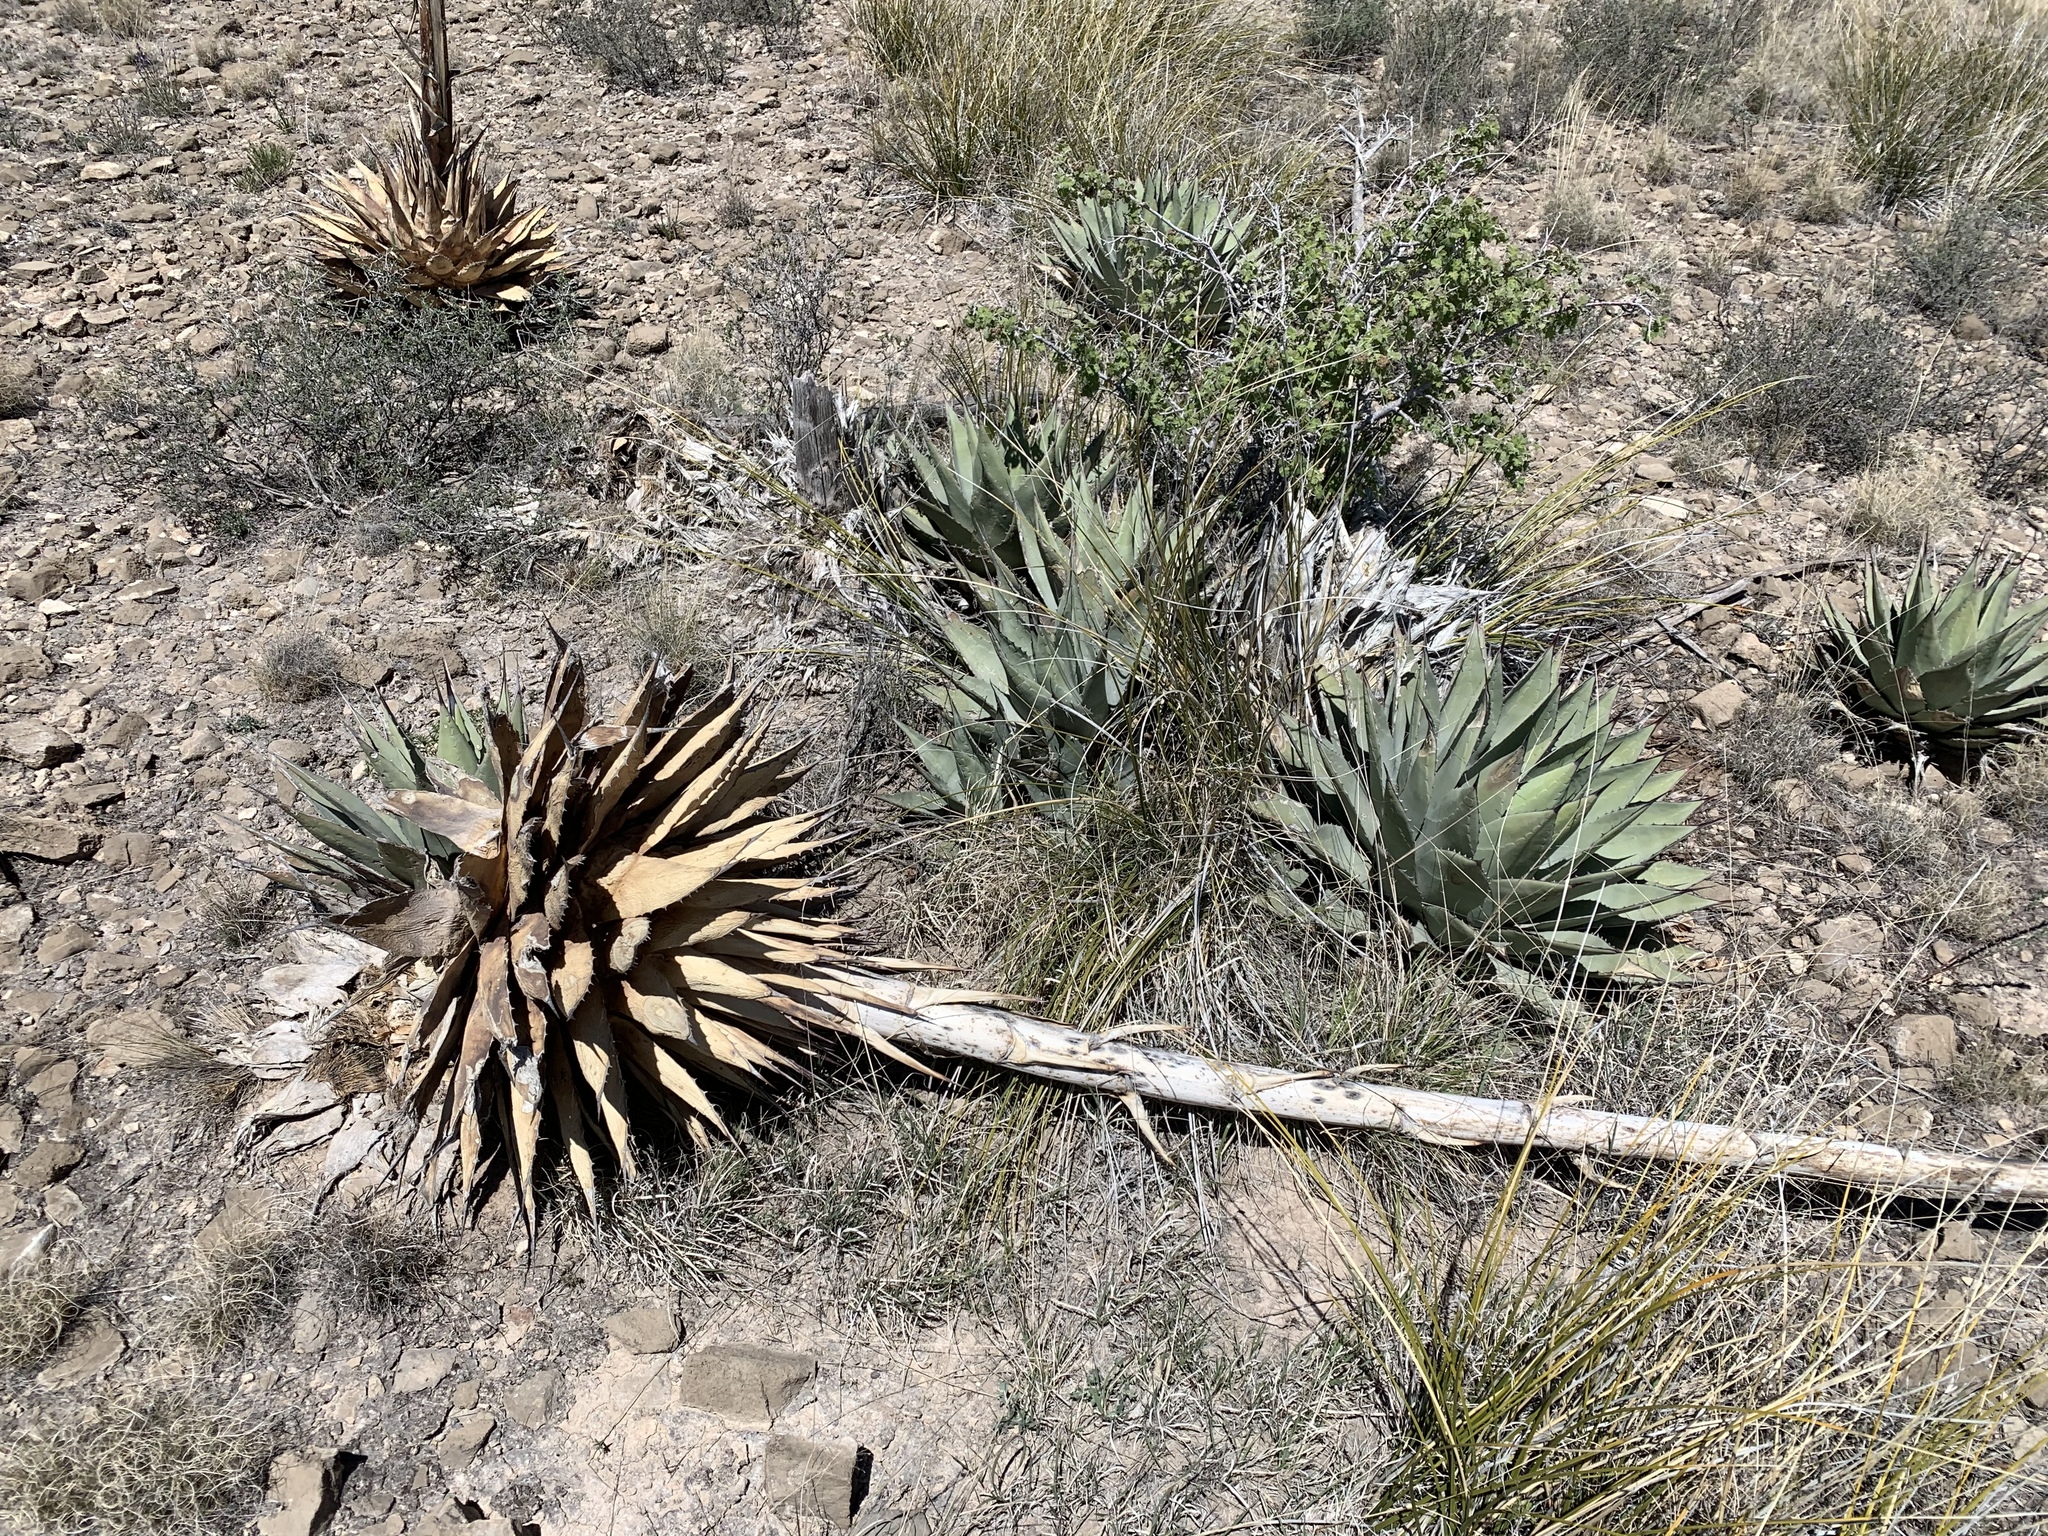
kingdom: Plantae
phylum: Tracheophyta
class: Liliopsida
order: Asparagales
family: Asparagaceae
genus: Agave
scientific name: Agave parryi
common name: Parry's agave
